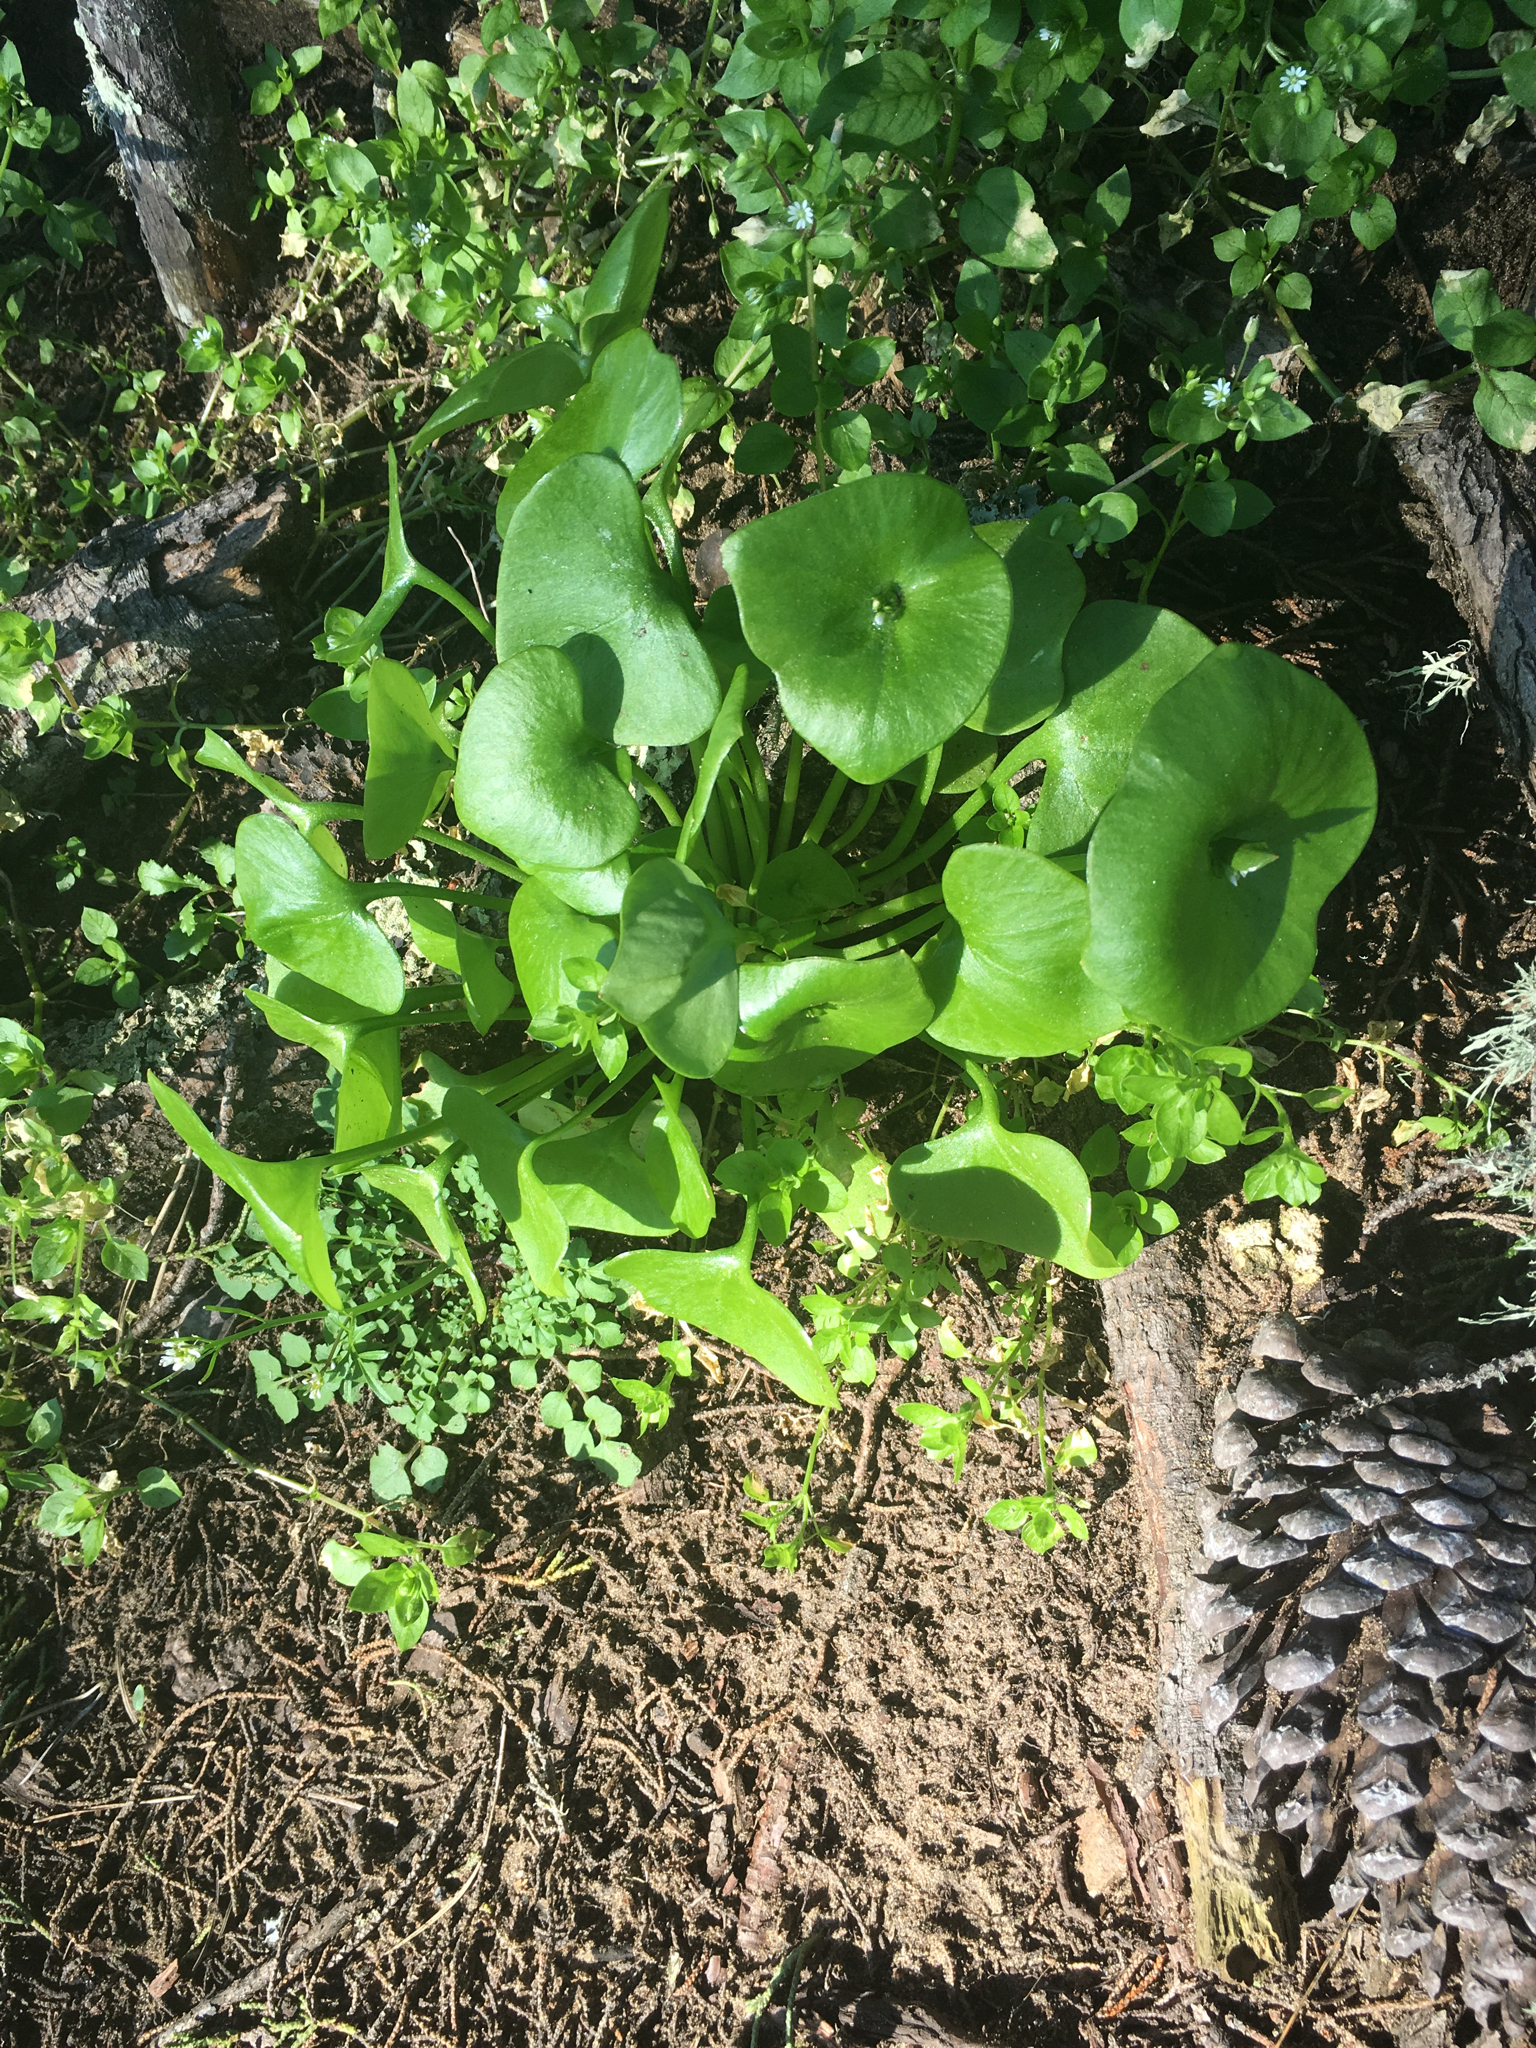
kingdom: Plantae
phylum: Tracheophyta
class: Magnoliopsida
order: Caryophyllales
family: Montiaceae
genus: Claytonia
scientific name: Claytonia perfoliata
